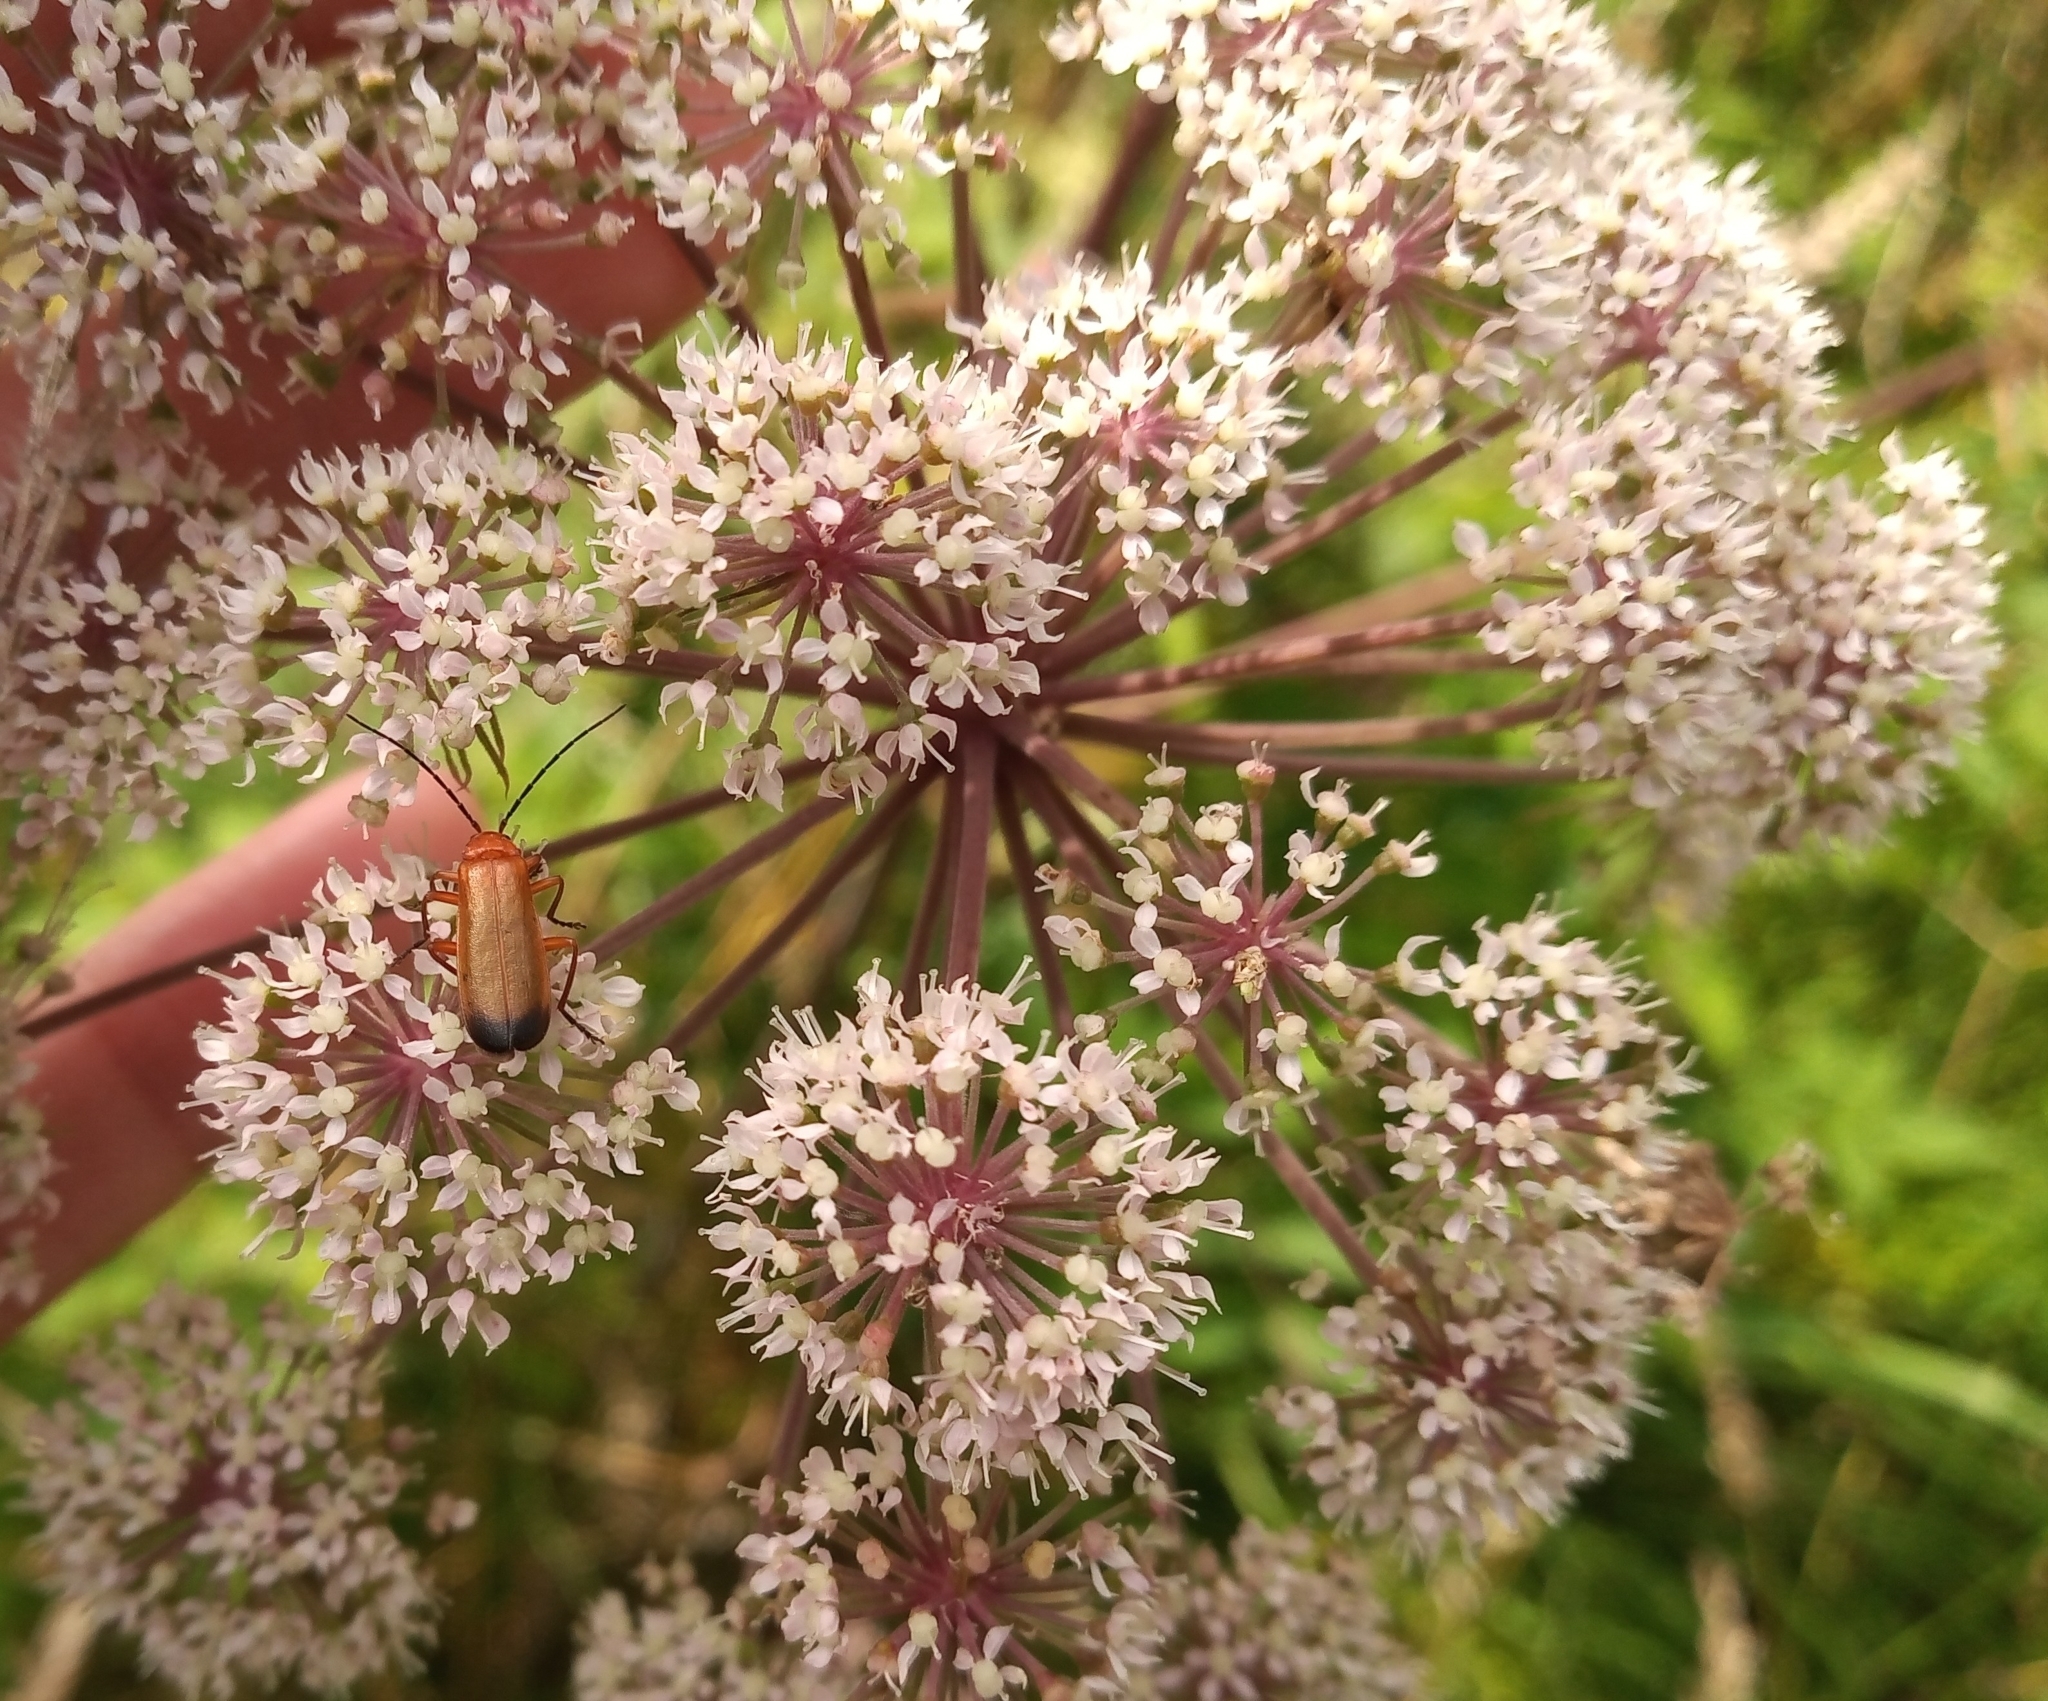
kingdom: Animalia
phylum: Arthropoda
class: Insecta
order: Coleoptera
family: Cantharidae
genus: Rhagonycha
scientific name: Rhagonycha fulva
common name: Common red soldier beetle
